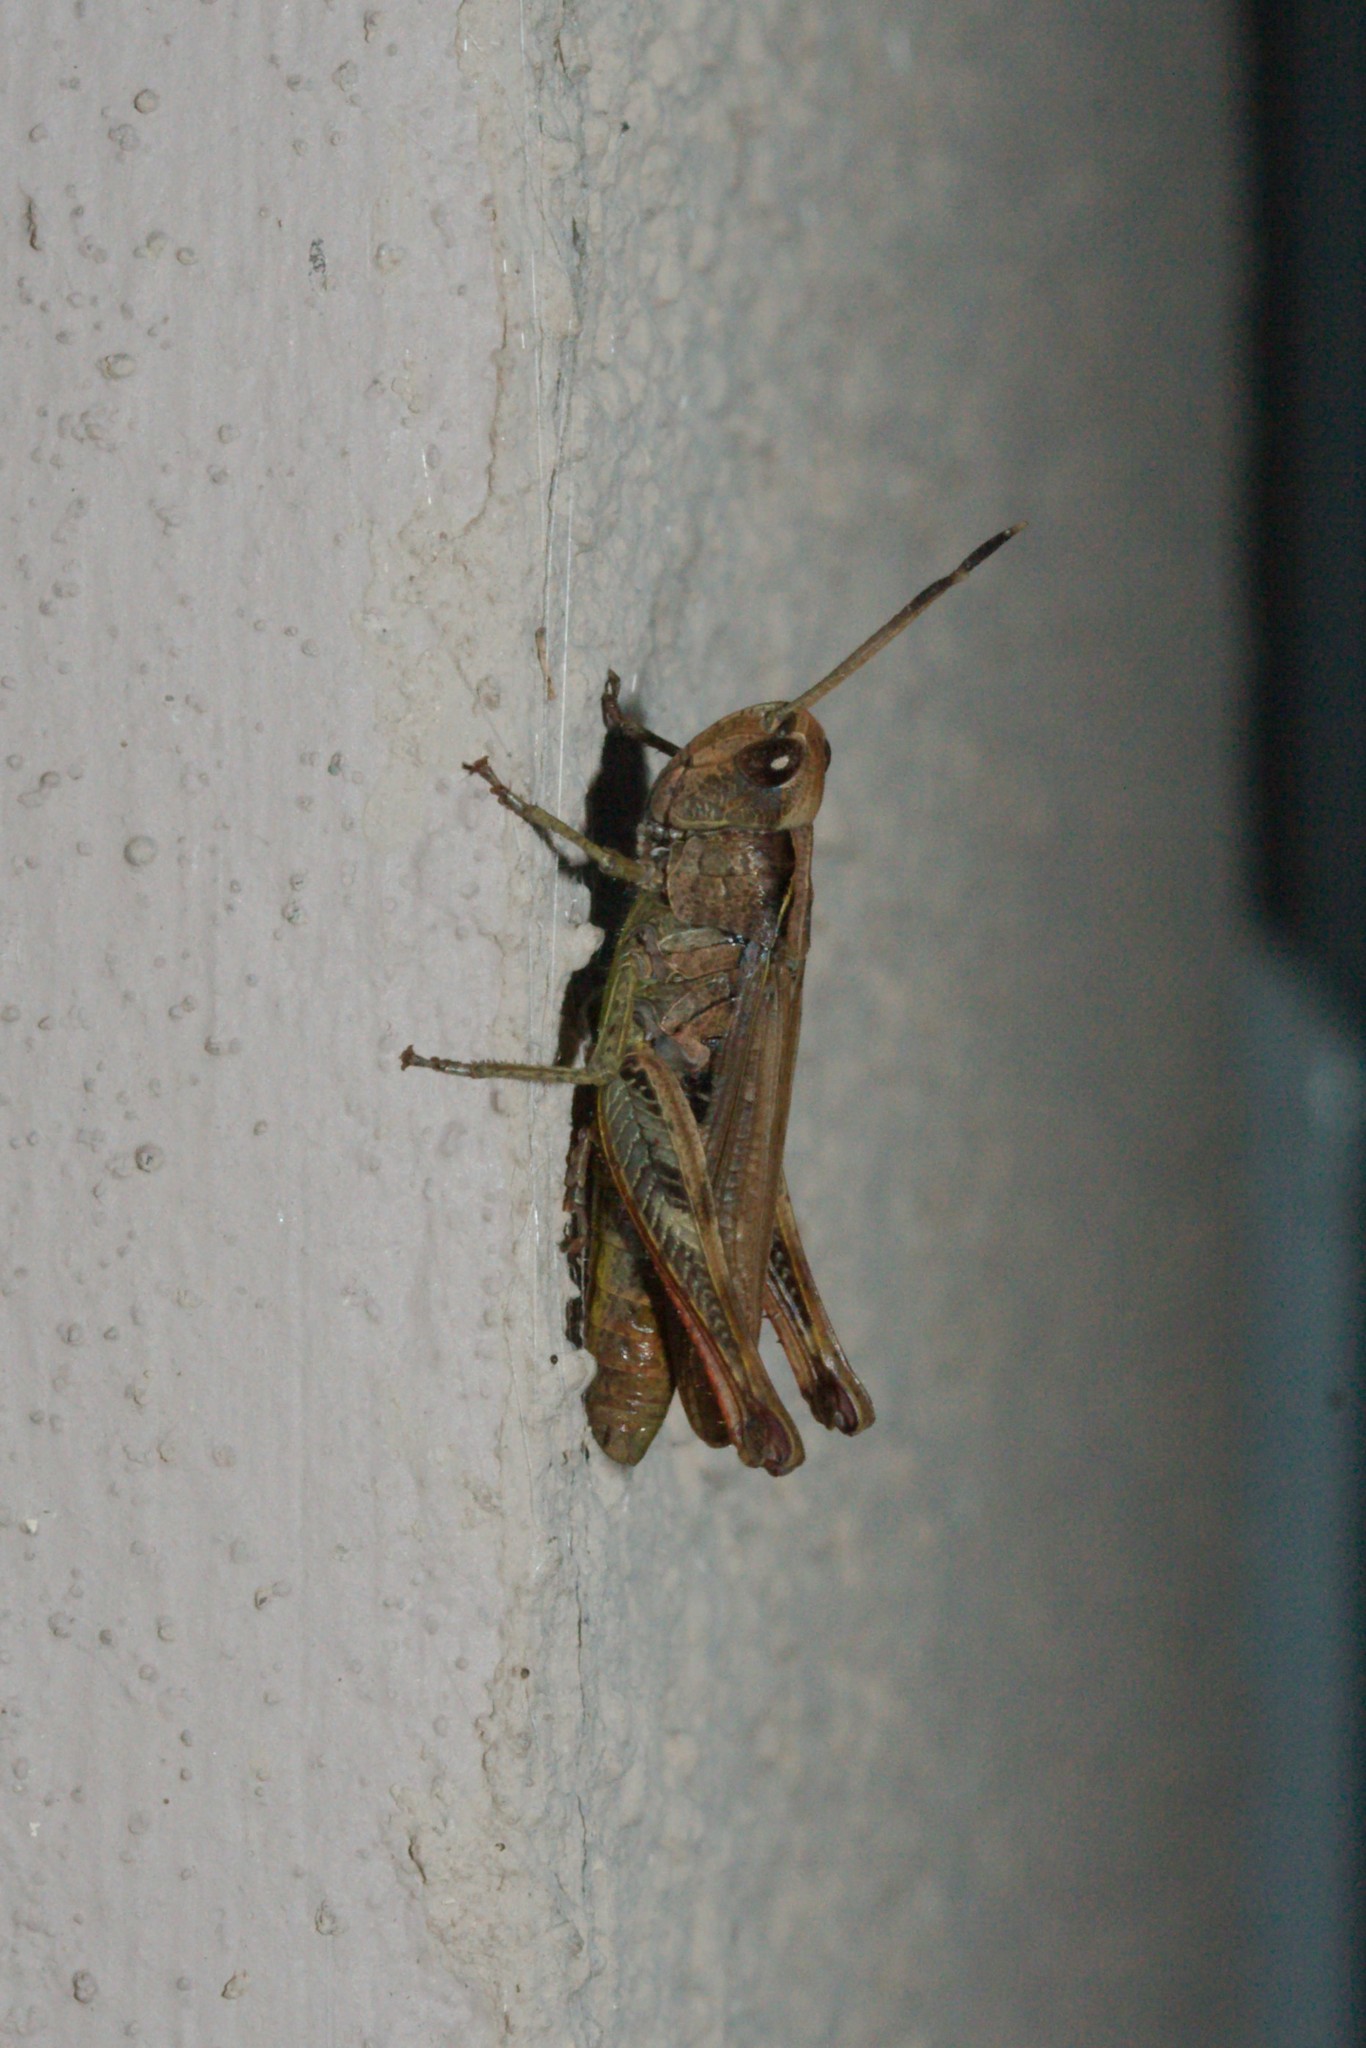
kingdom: Animalia
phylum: Arthropoda
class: Insecta
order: Orthoptera
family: Acrididae
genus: Gomphocerippus
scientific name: Gomphocerippus rufus
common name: Rufous grasshopper
